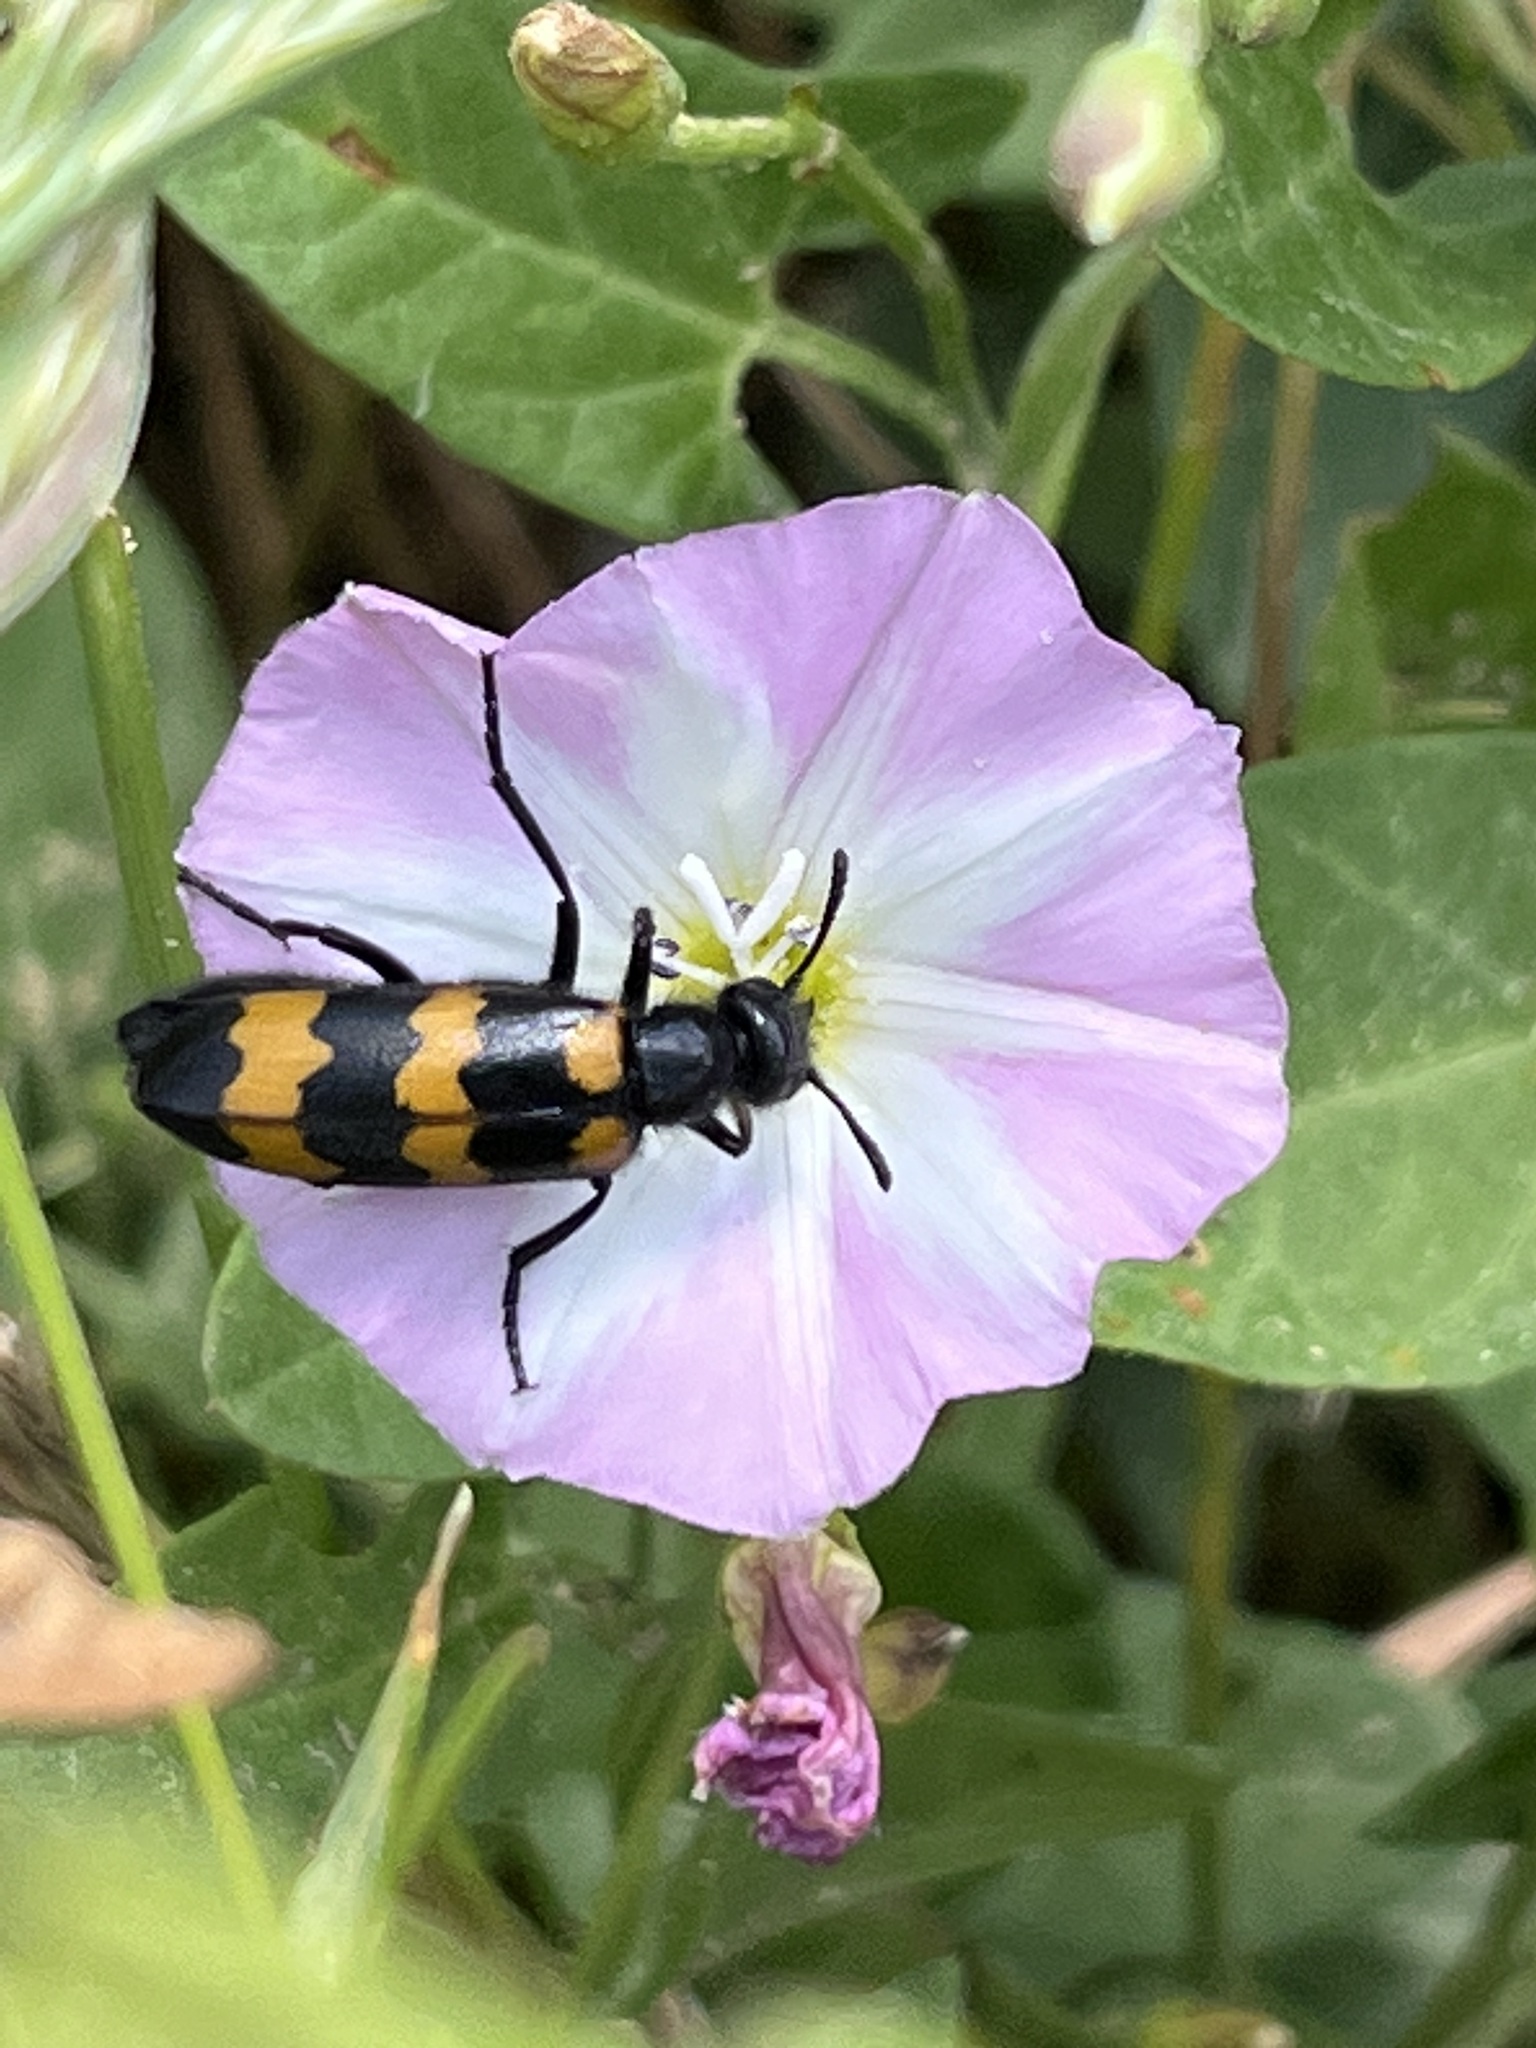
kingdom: Animalia
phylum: Arthropoda
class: Insecta
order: Coleoptera
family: Meloidae
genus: Mylabris
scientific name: Mylabris variabilis
